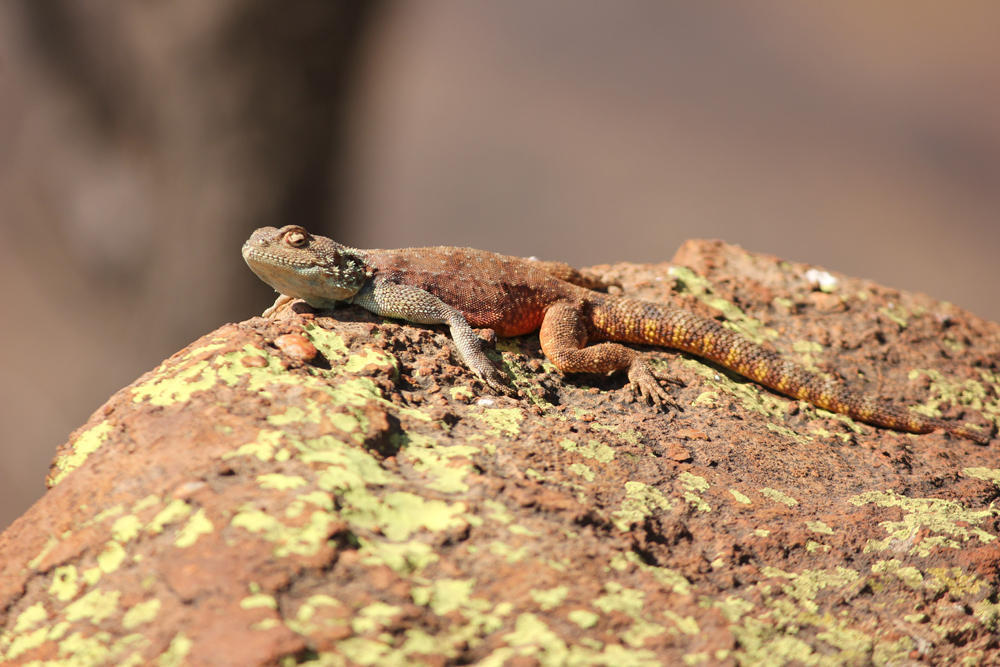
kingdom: Animalia
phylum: Chordata
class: Squamata
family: Agamidae
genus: Agama
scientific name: Agama atra
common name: Southern african rock agama
